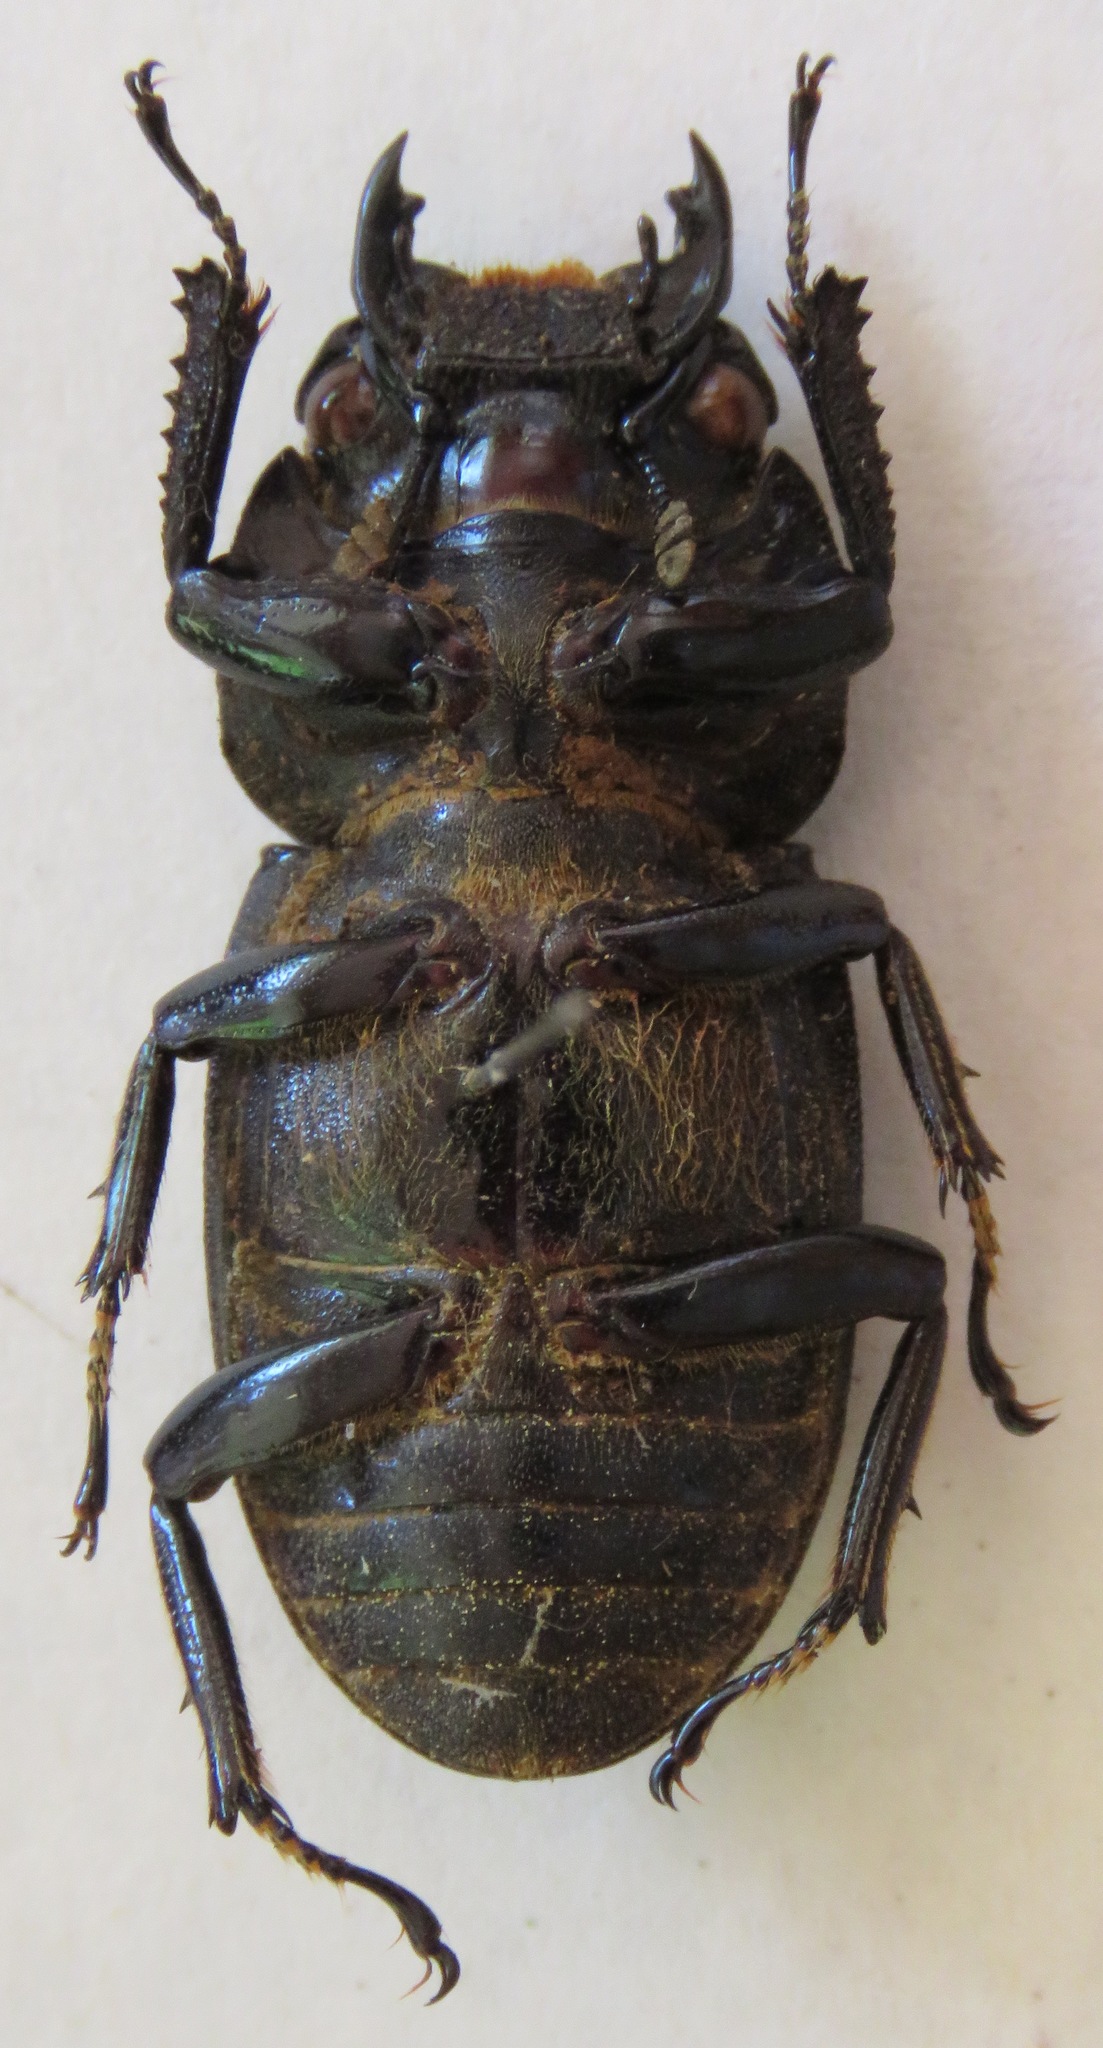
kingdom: Animalia
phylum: Arthropoda
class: Insecta
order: Coleoptera
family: Lucanidae
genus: Dorcus
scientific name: Dorcus ritsemae
